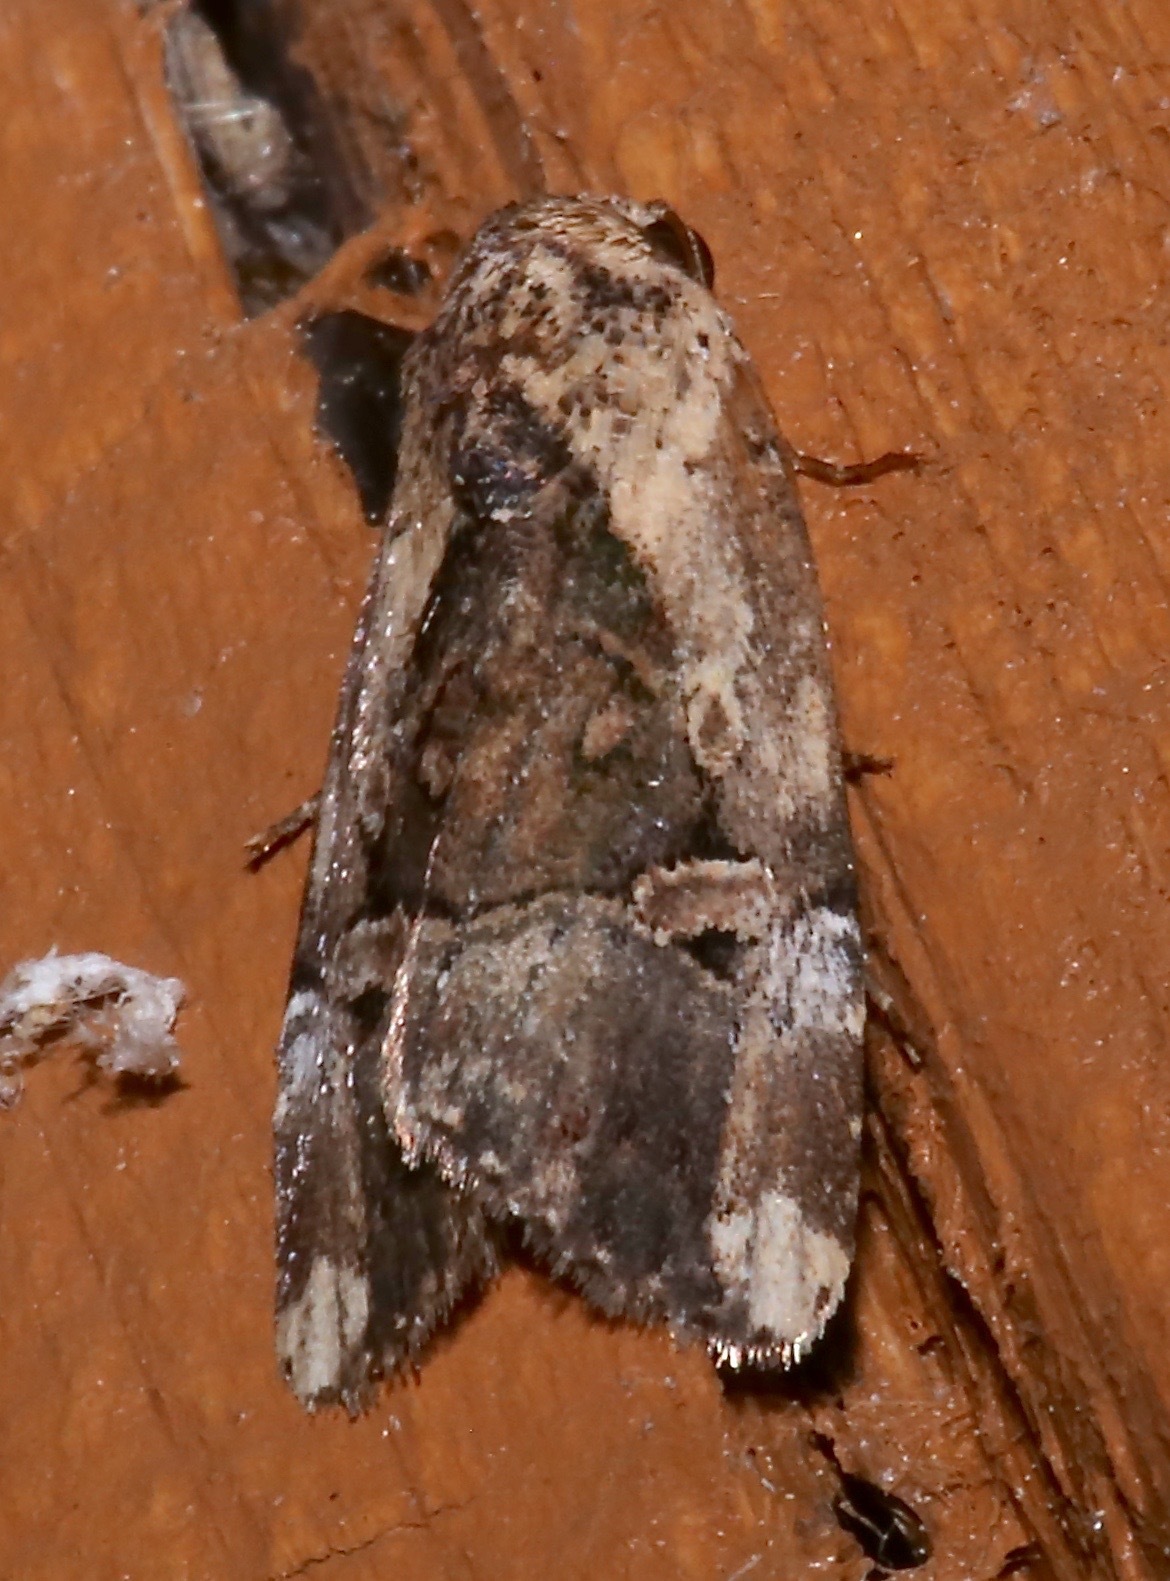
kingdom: Animalia
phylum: Arthropoda
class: Insecta
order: Lepidoptera
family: Noctuidae
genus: Elaphria
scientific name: Elaphria chalcedonia
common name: Chalcedony midget
